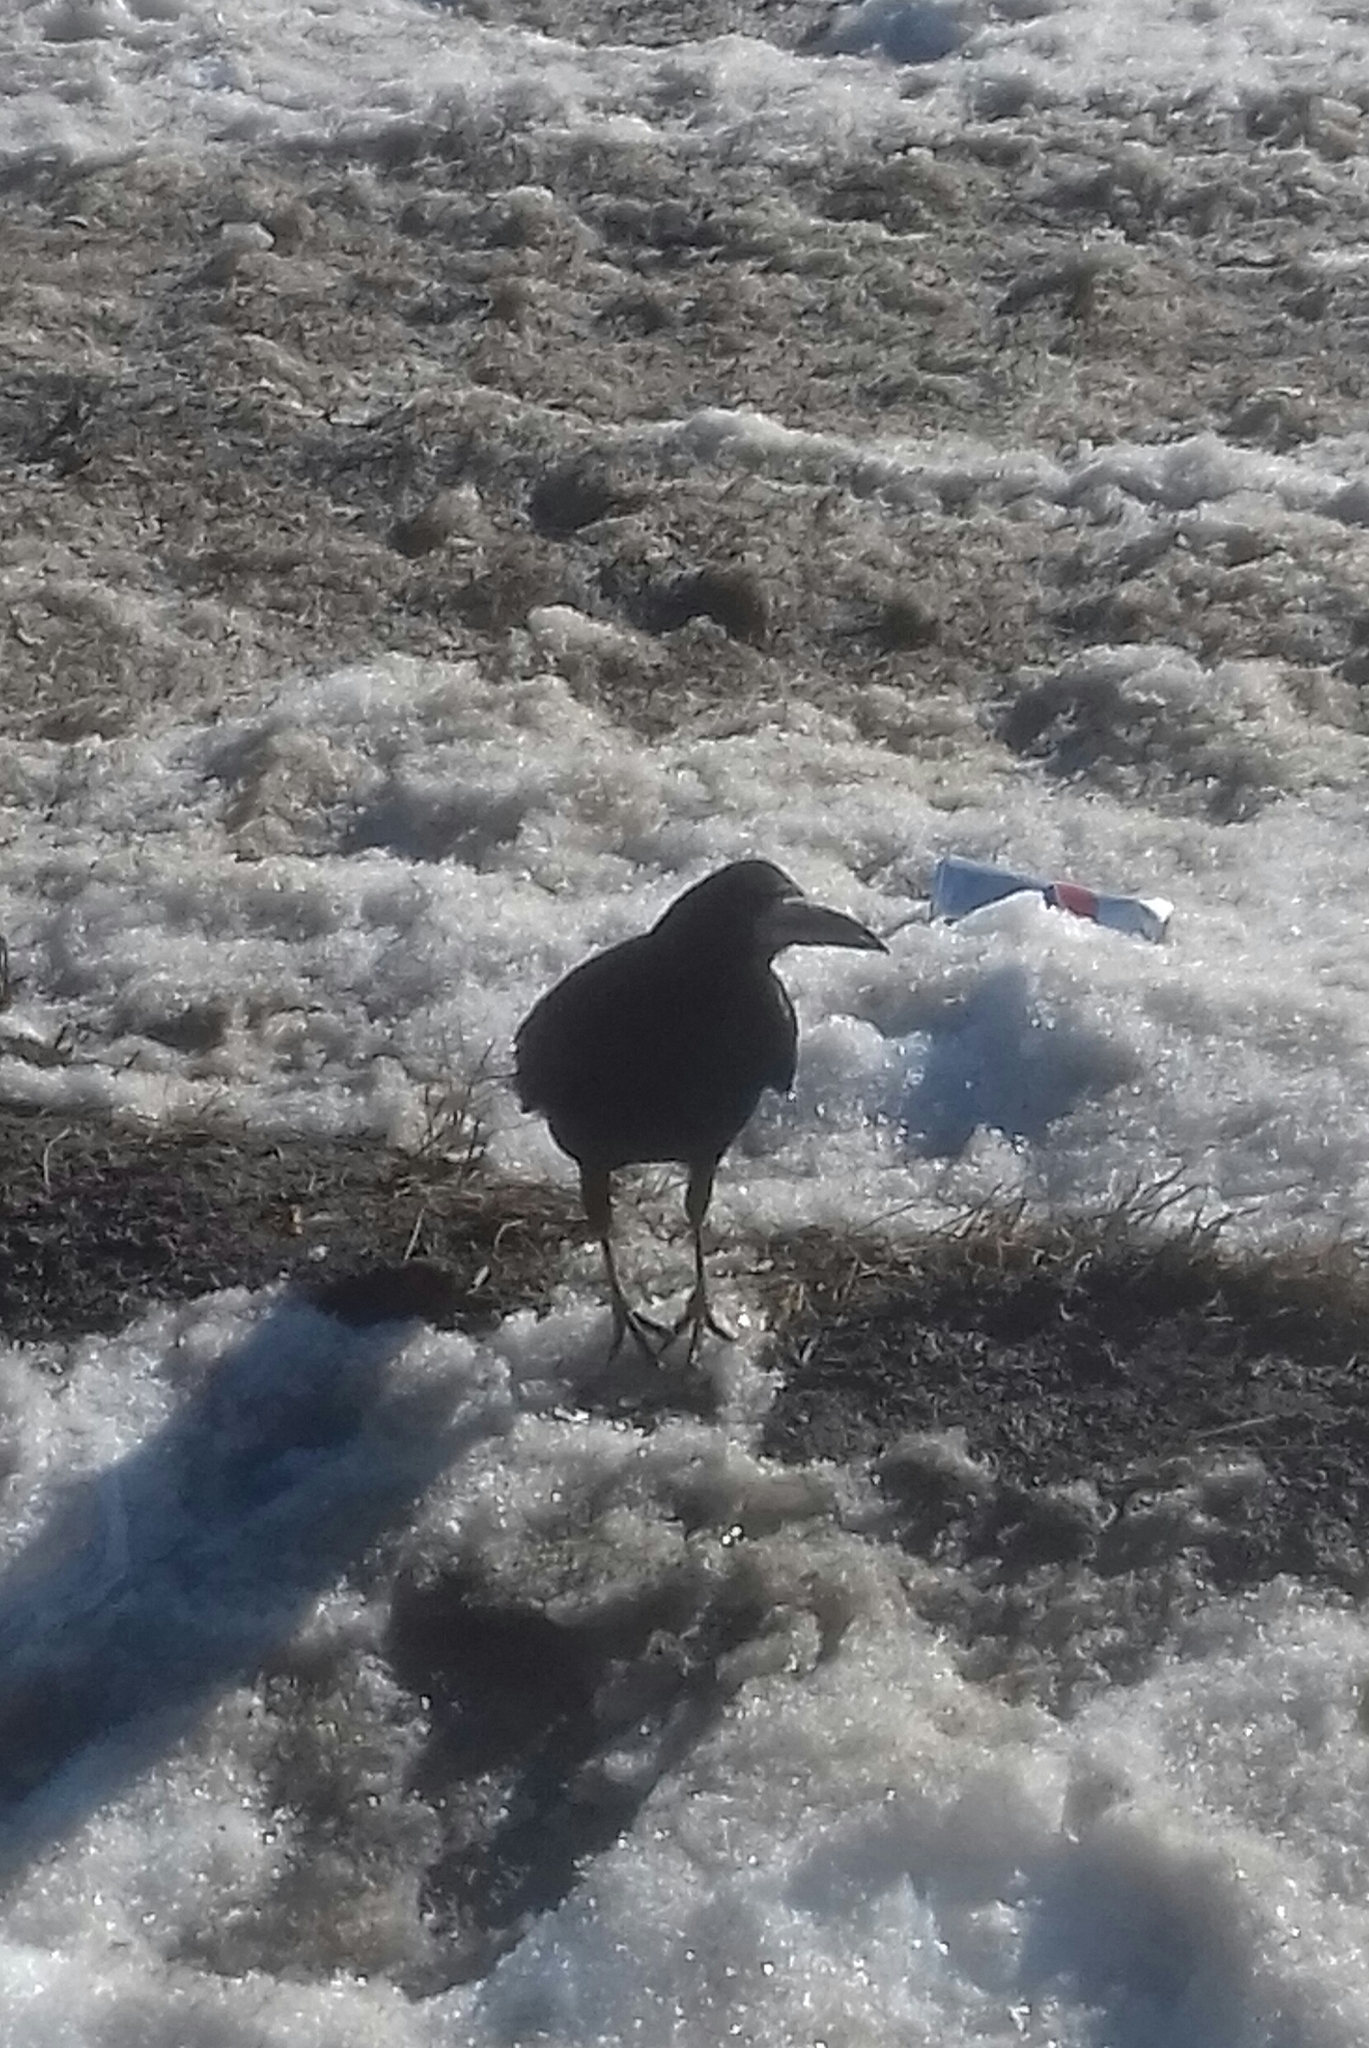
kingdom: Animalia
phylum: Chordata
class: Aves
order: Passeriformes
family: Corvidae
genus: Corvus
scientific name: Corvus frugilegus
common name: Rook
